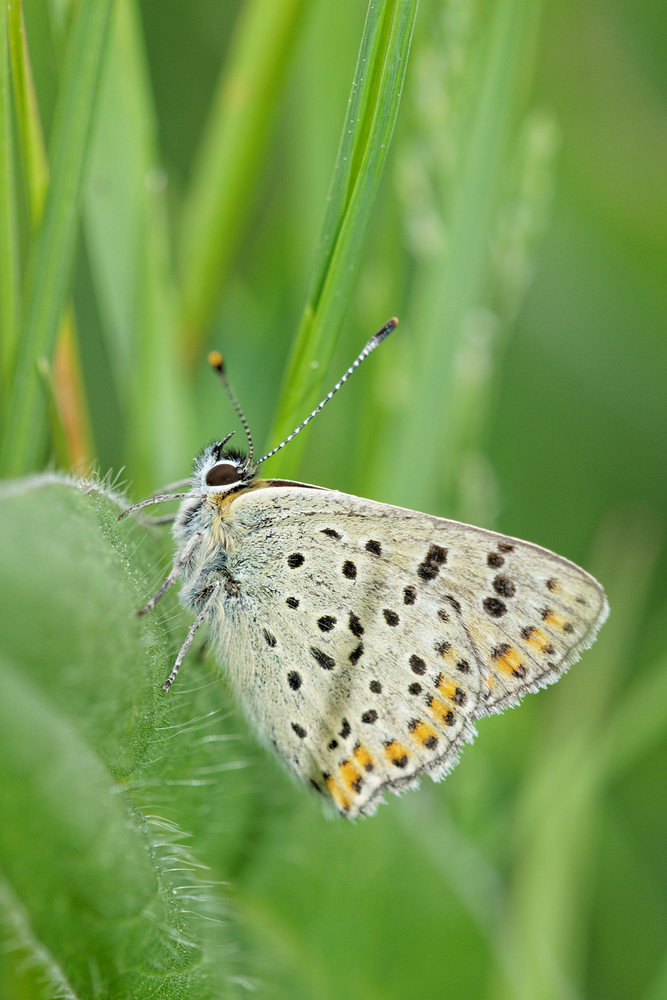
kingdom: Animalia
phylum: Arthropoda
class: Insecta
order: Lepidoptera
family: Lycaenidae
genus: Loweia
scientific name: Loweia tityrus
